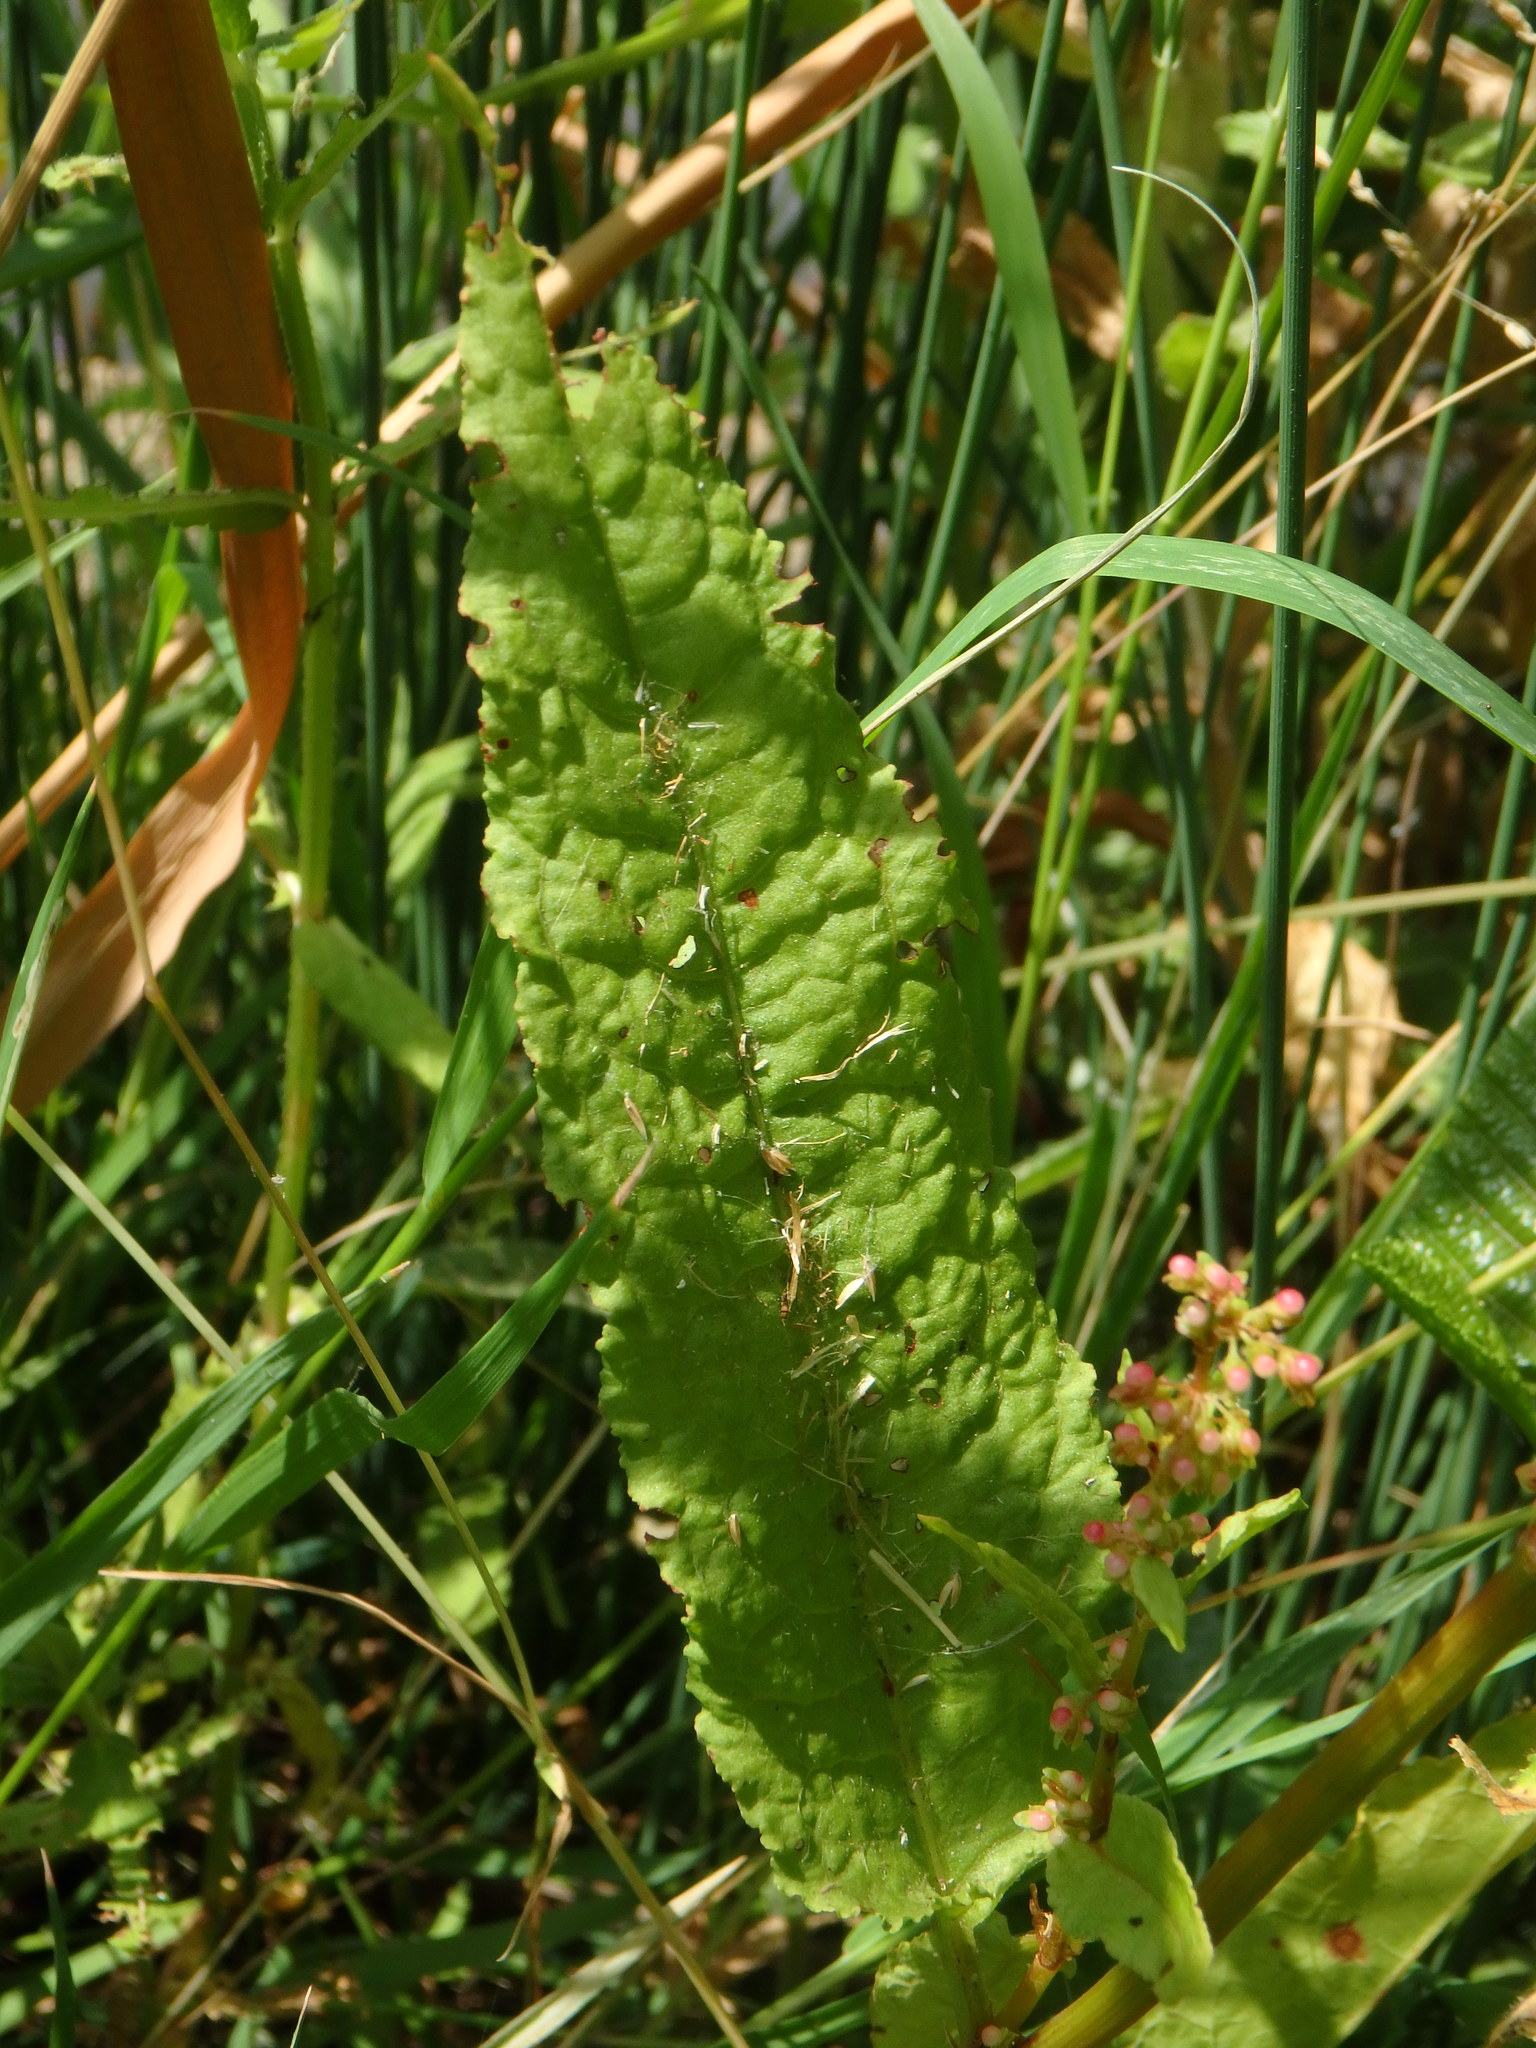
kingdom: Plantae
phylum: Tracheophyta
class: Magnoliopsida
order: Caryophyllales
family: Polygonaceae
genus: Rumex
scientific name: Rumex sanguineus
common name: Wood dock
